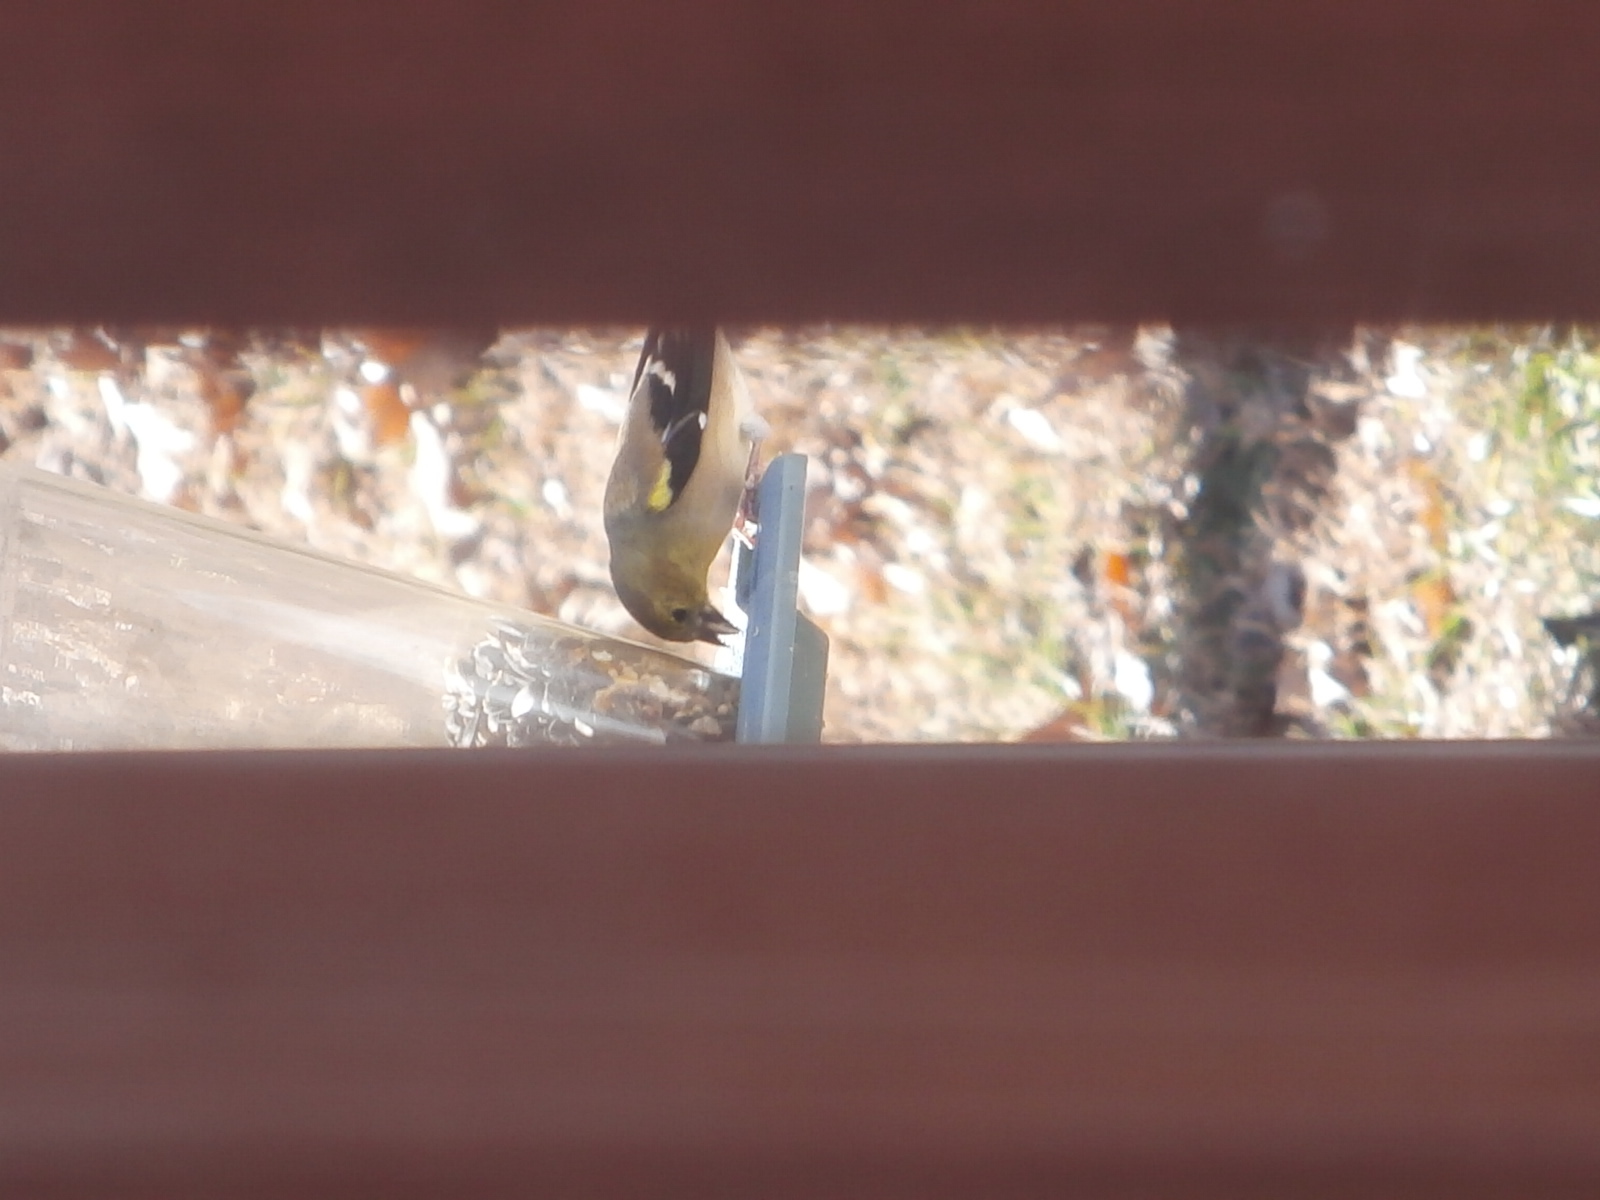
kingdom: Animalia
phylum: Chordata
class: Aves
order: Passeriformes
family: Fringillidae
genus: Spinus
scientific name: Spinus tristis
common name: American goldfinch
